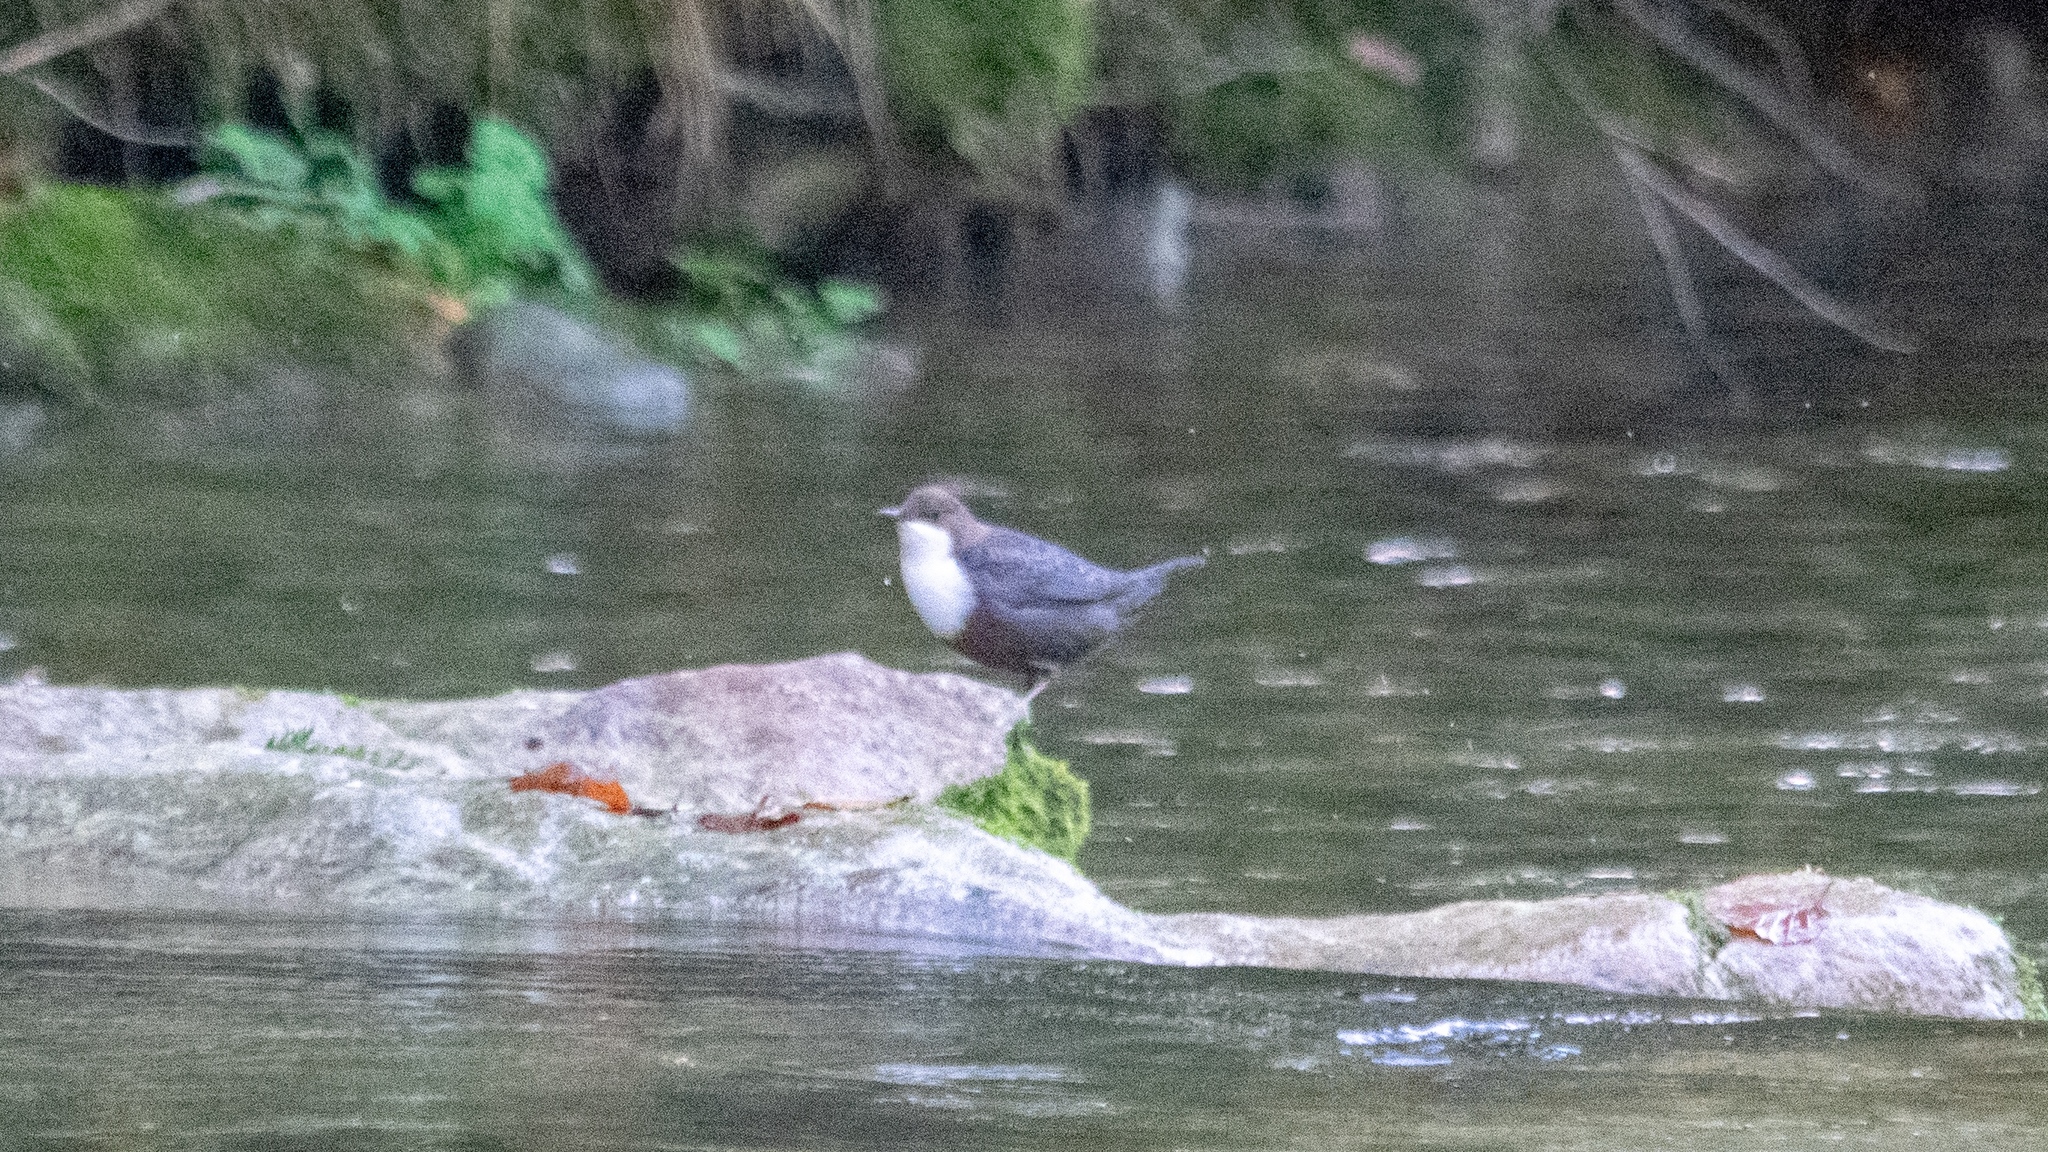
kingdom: Animalia
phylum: Chordata
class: Aves
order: Passeriformes
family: Cinclidae
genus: Cinclus
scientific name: Cinclus cinclus
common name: White-throated dipper
